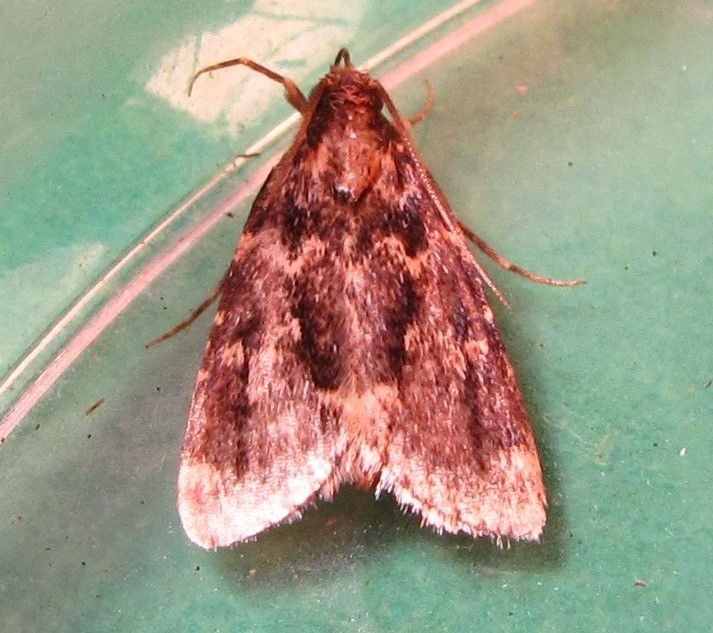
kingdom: Animalia
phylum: Arthropoda
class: Insecta
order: Lepidoptera
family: Pyralidae
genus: Aglossa
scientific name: Aglossa caprealis
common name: Small tabby
